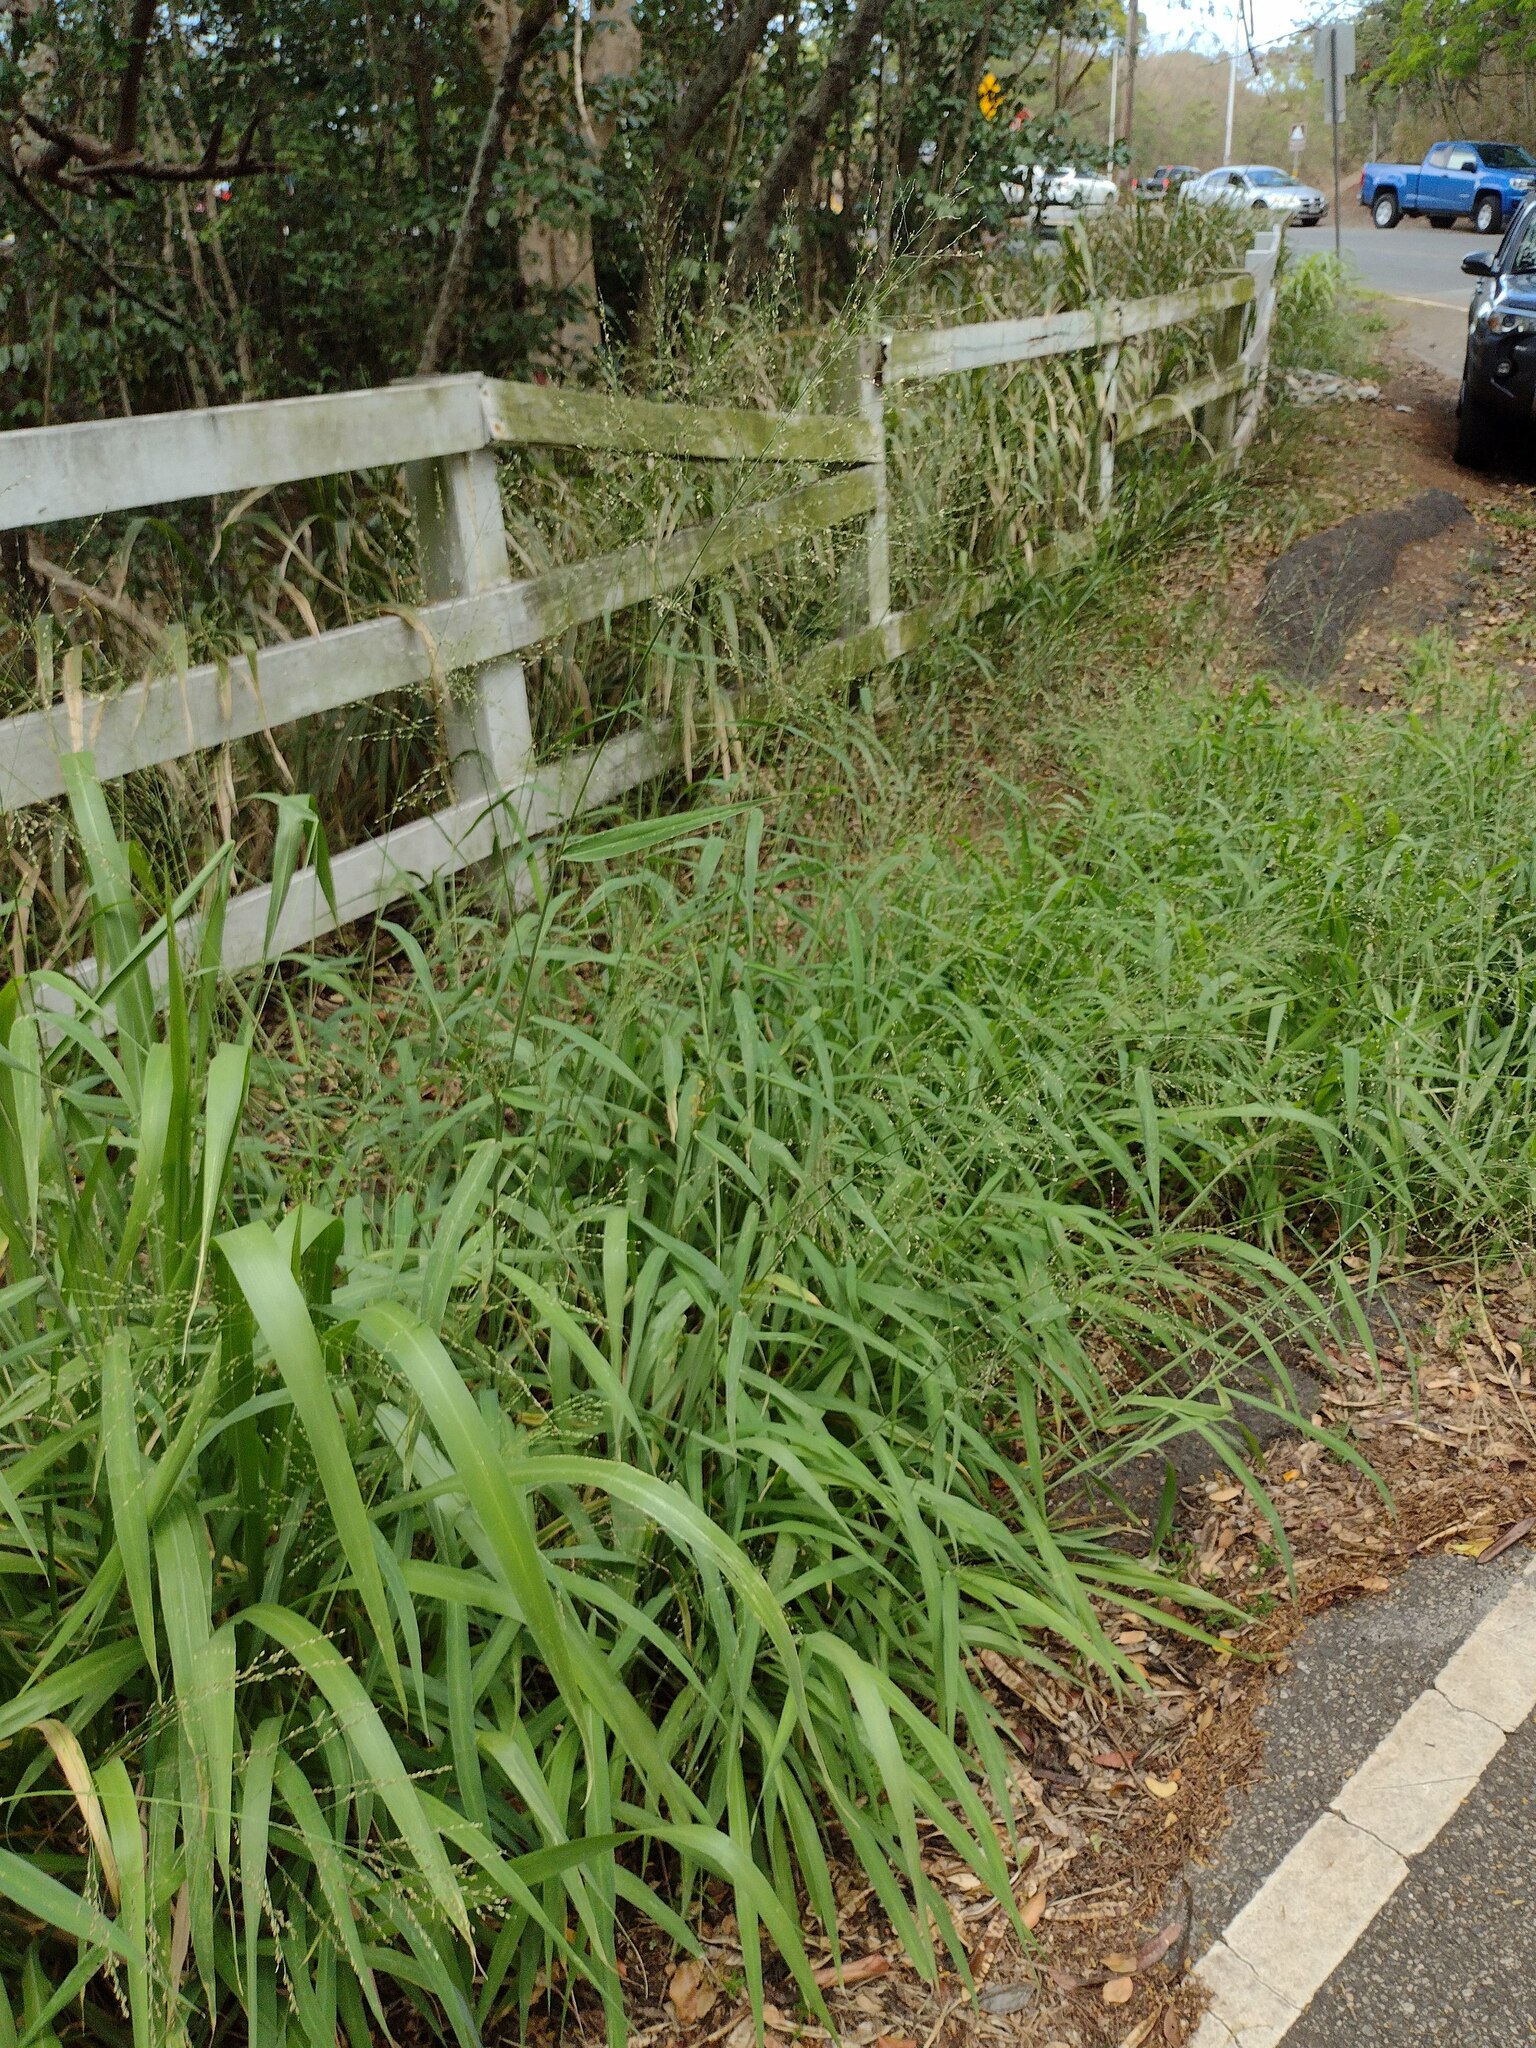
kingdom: Plantae
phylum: Tracheophyta
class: Liliopsida
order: Poales
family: Poaceae
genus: Megathyrsus
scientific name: Megathyrsus maximus
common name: Guineagrass
